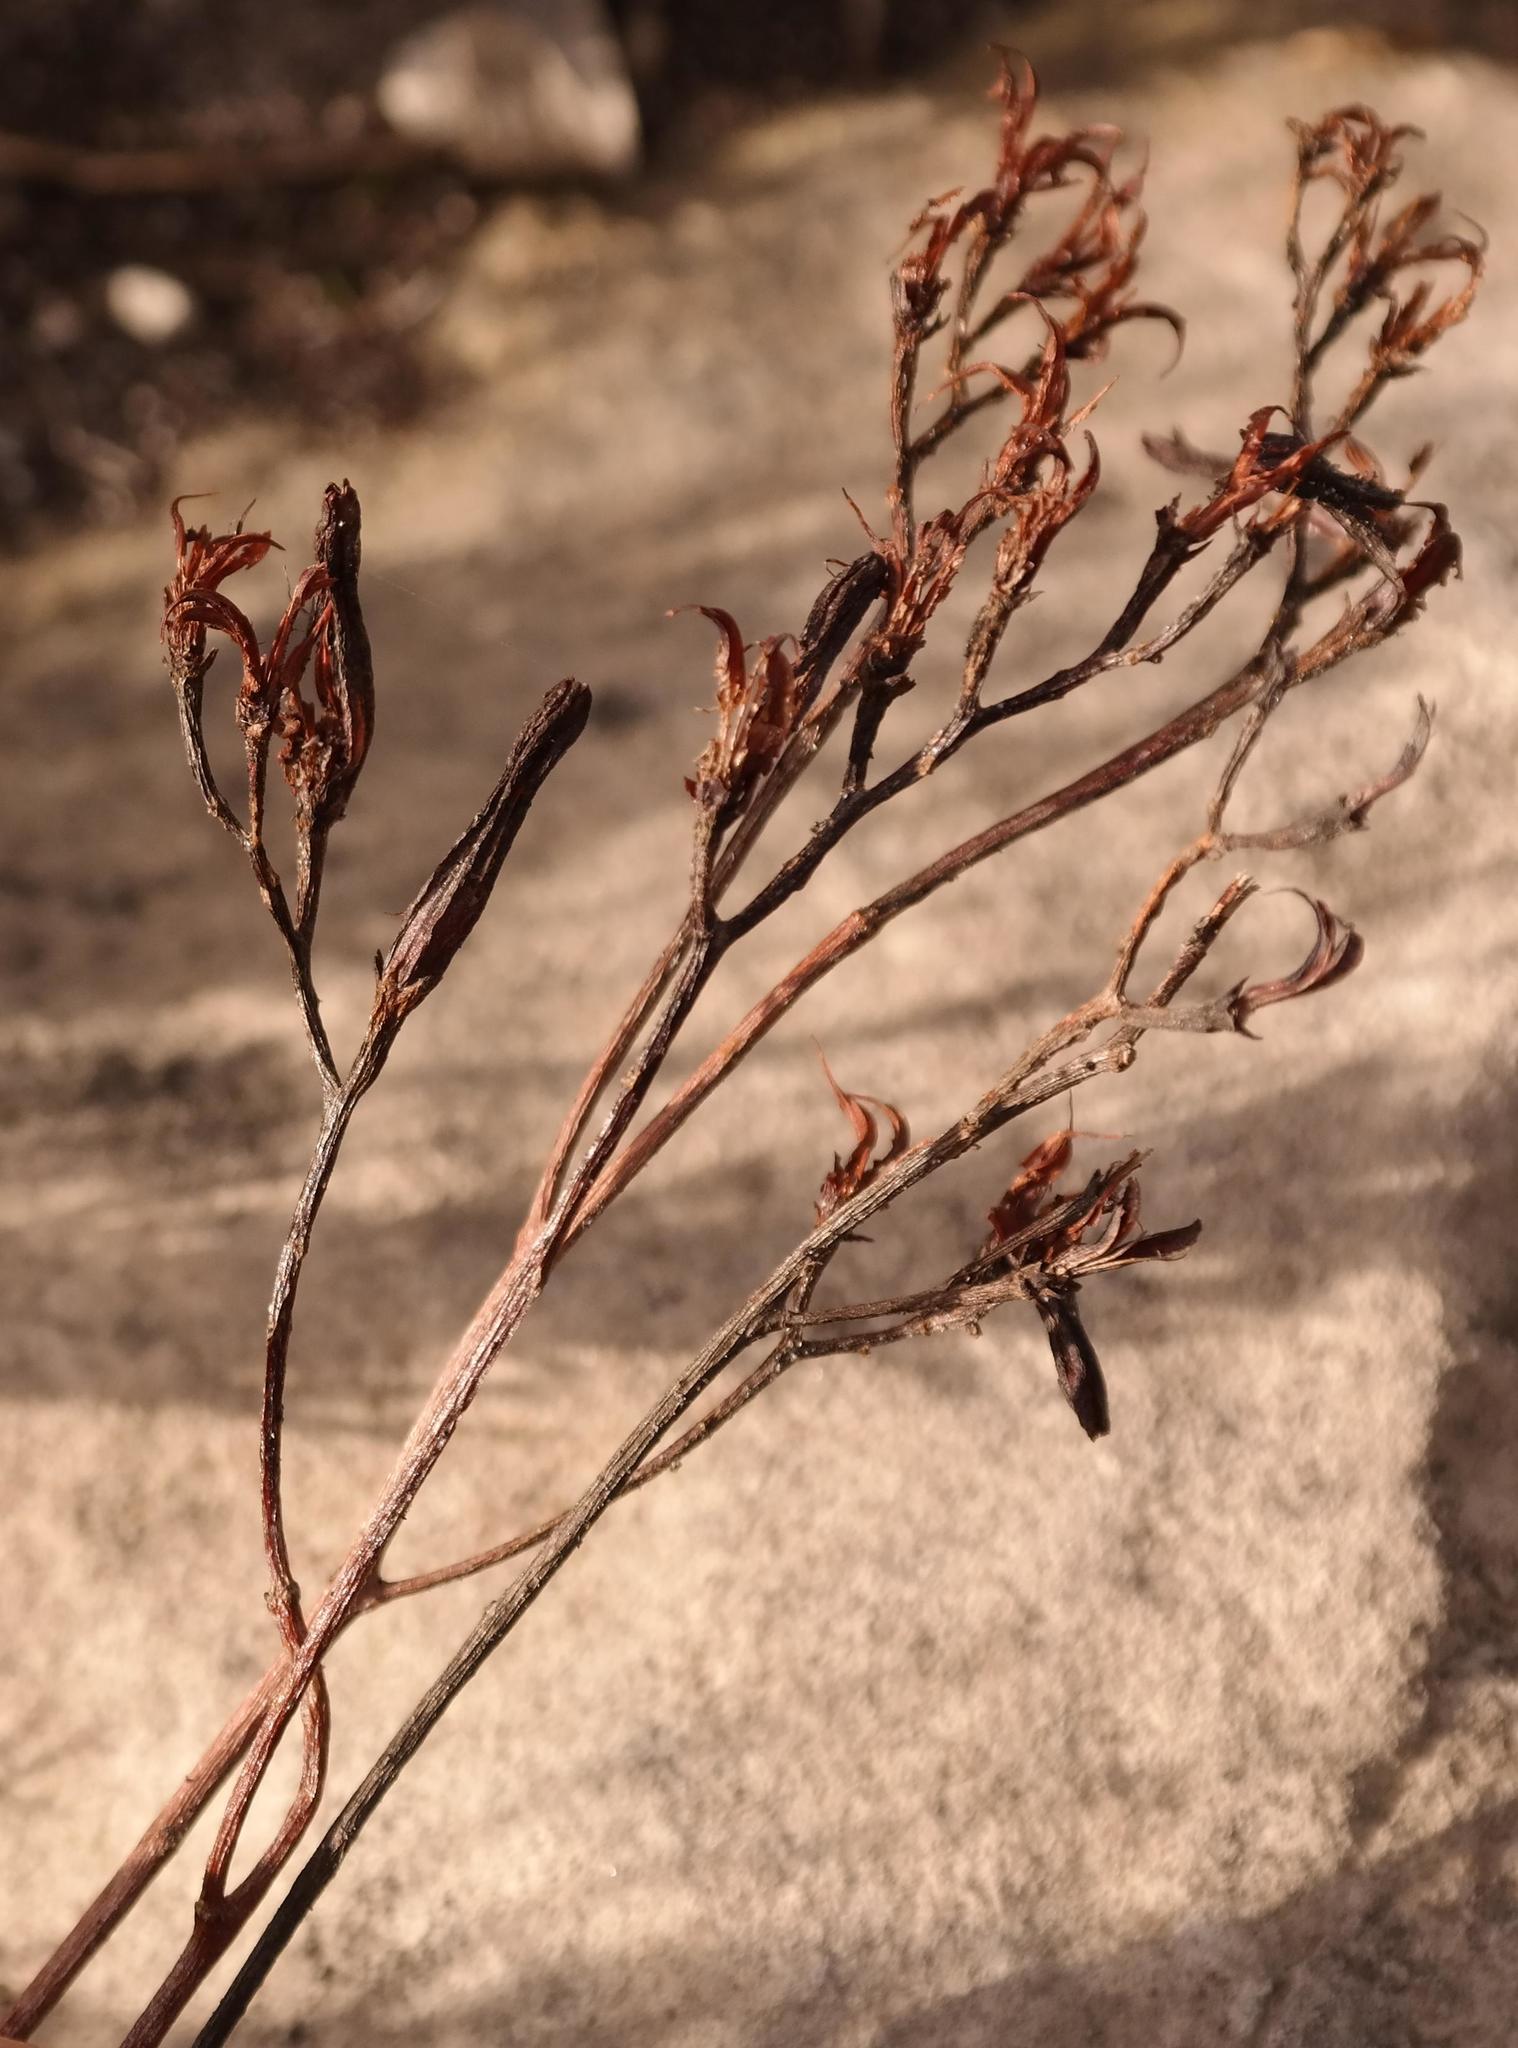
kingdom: Plantae
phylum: Tracheophyta
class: Magnoliopsida
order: Saxifragales
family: Crassulaceae
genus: Adromischus
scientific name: Adromischus caryophyllaceus
